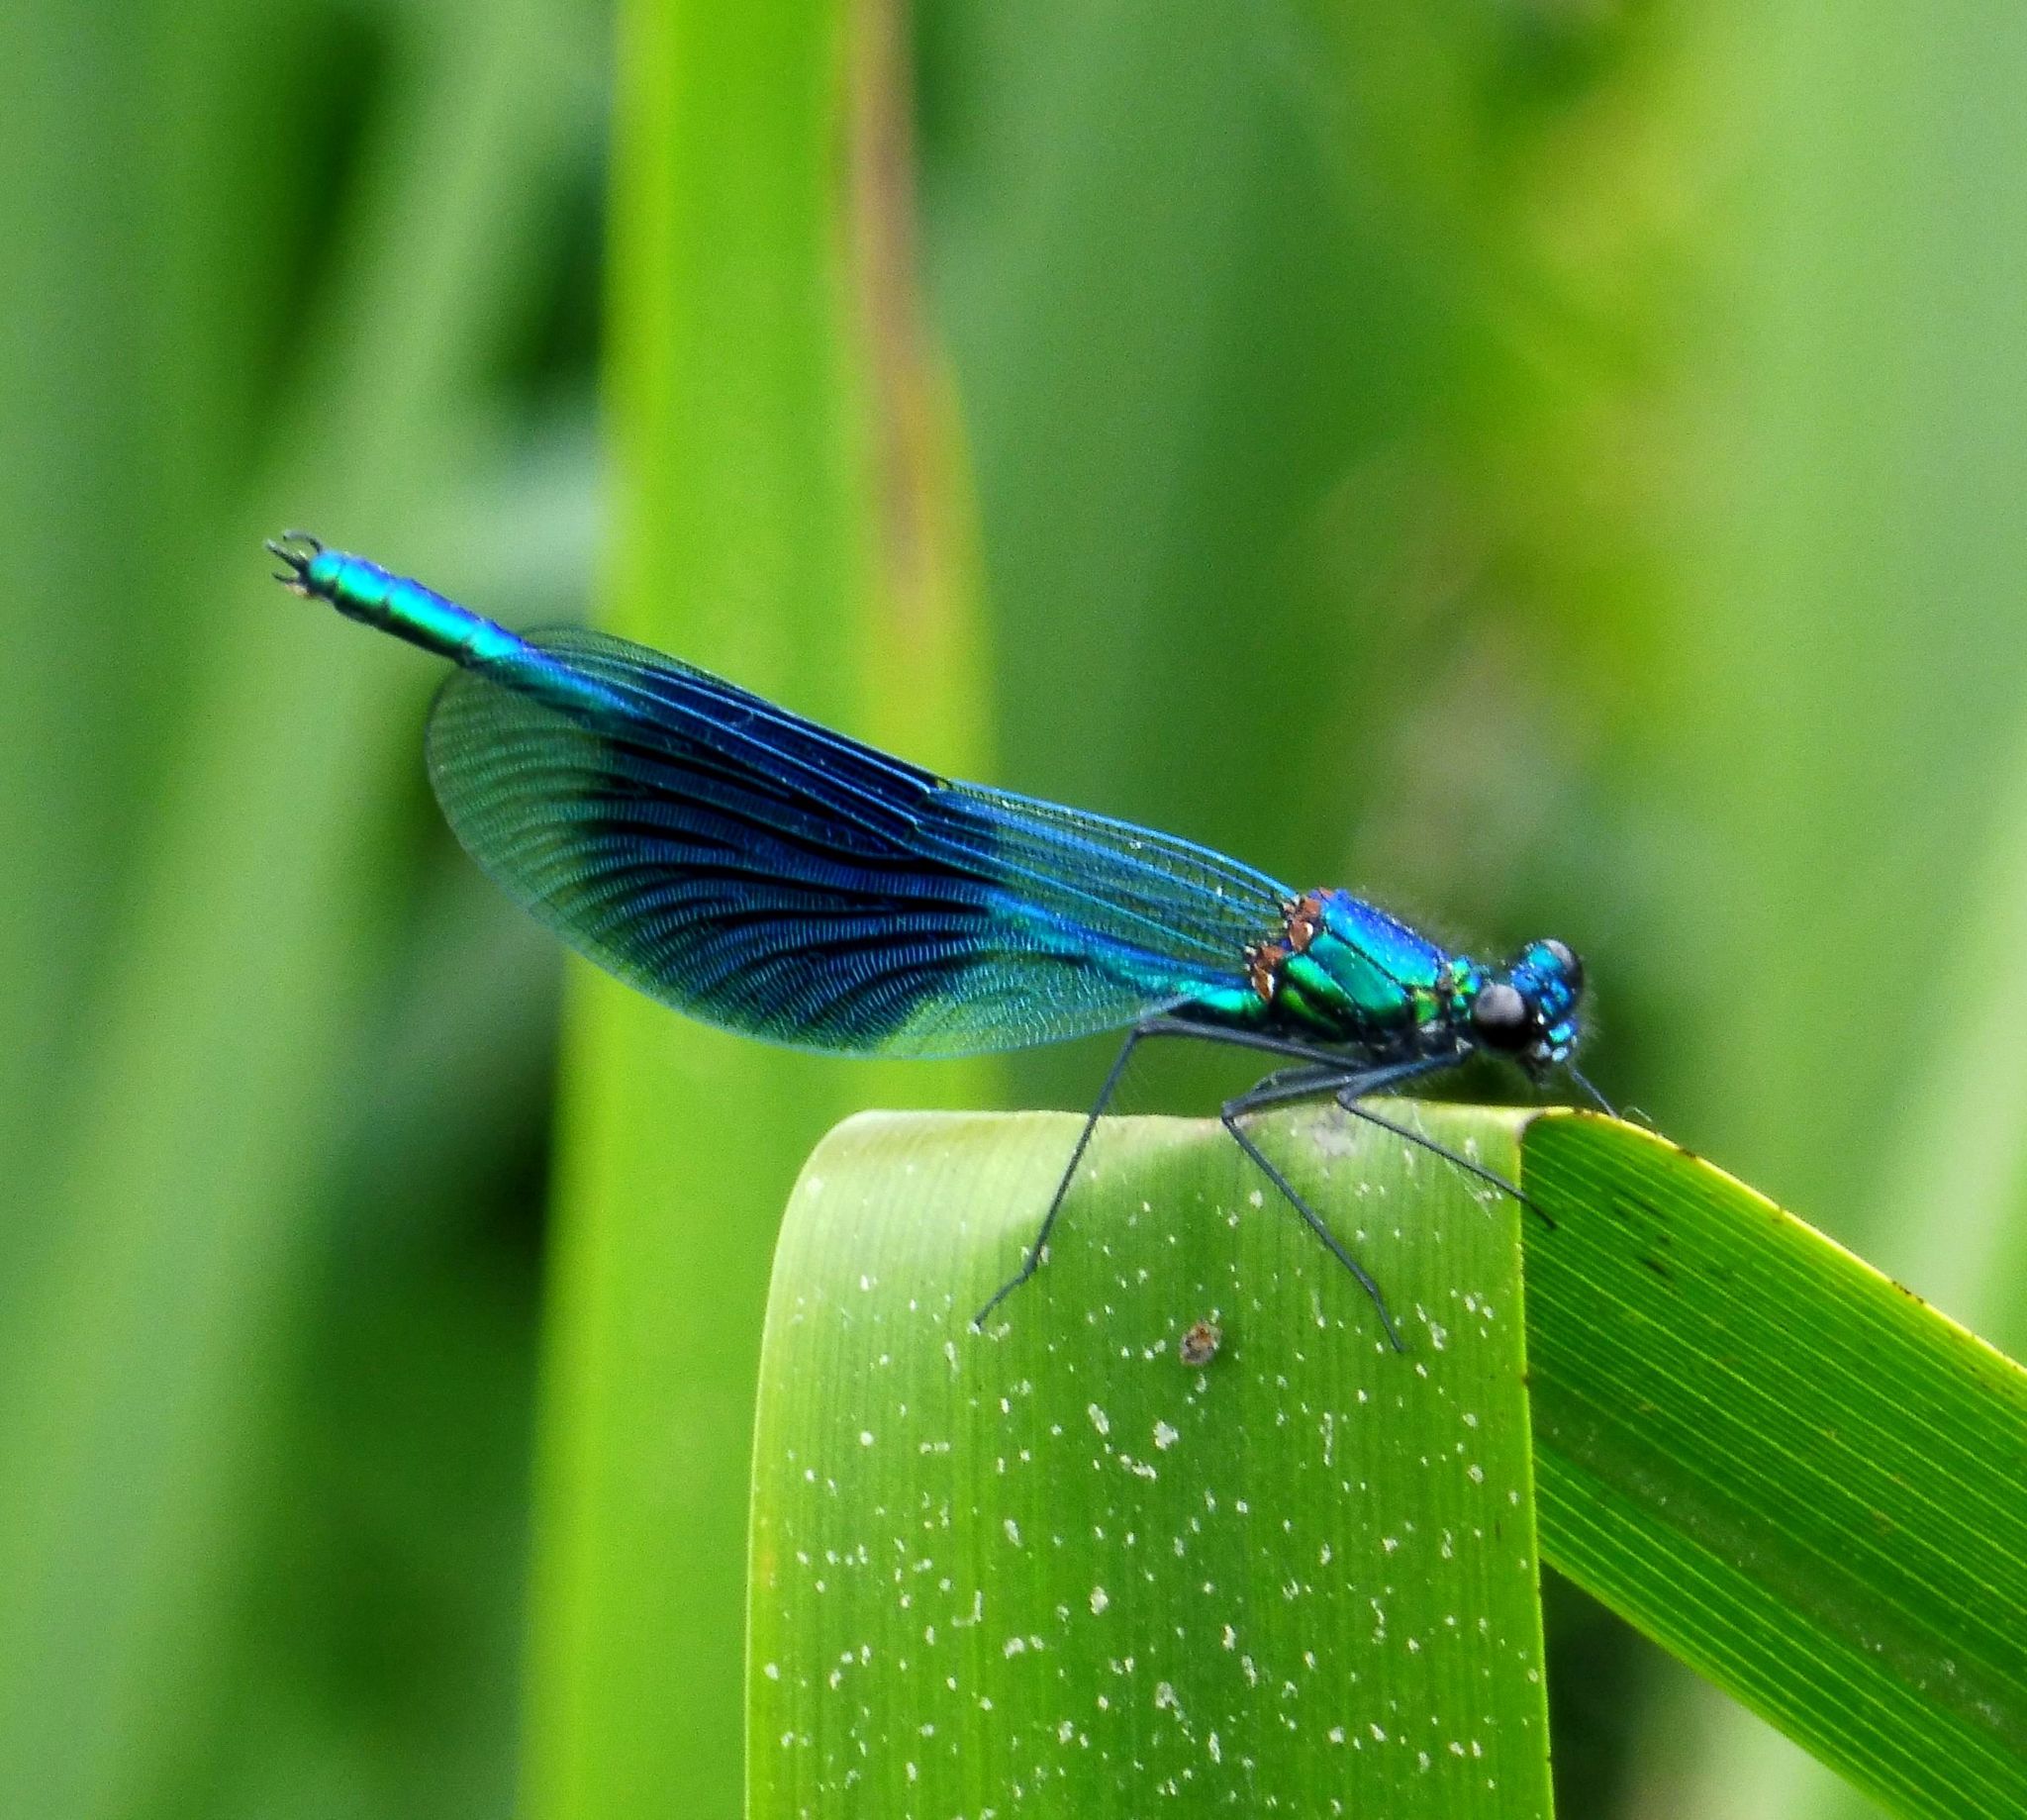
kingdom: Animalia
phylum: Arthropoda
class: Insecta
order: Odonata
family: Calopterygidae
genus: Calopteryx
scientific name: Calopteryx splendens
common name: Banded demoiselle
